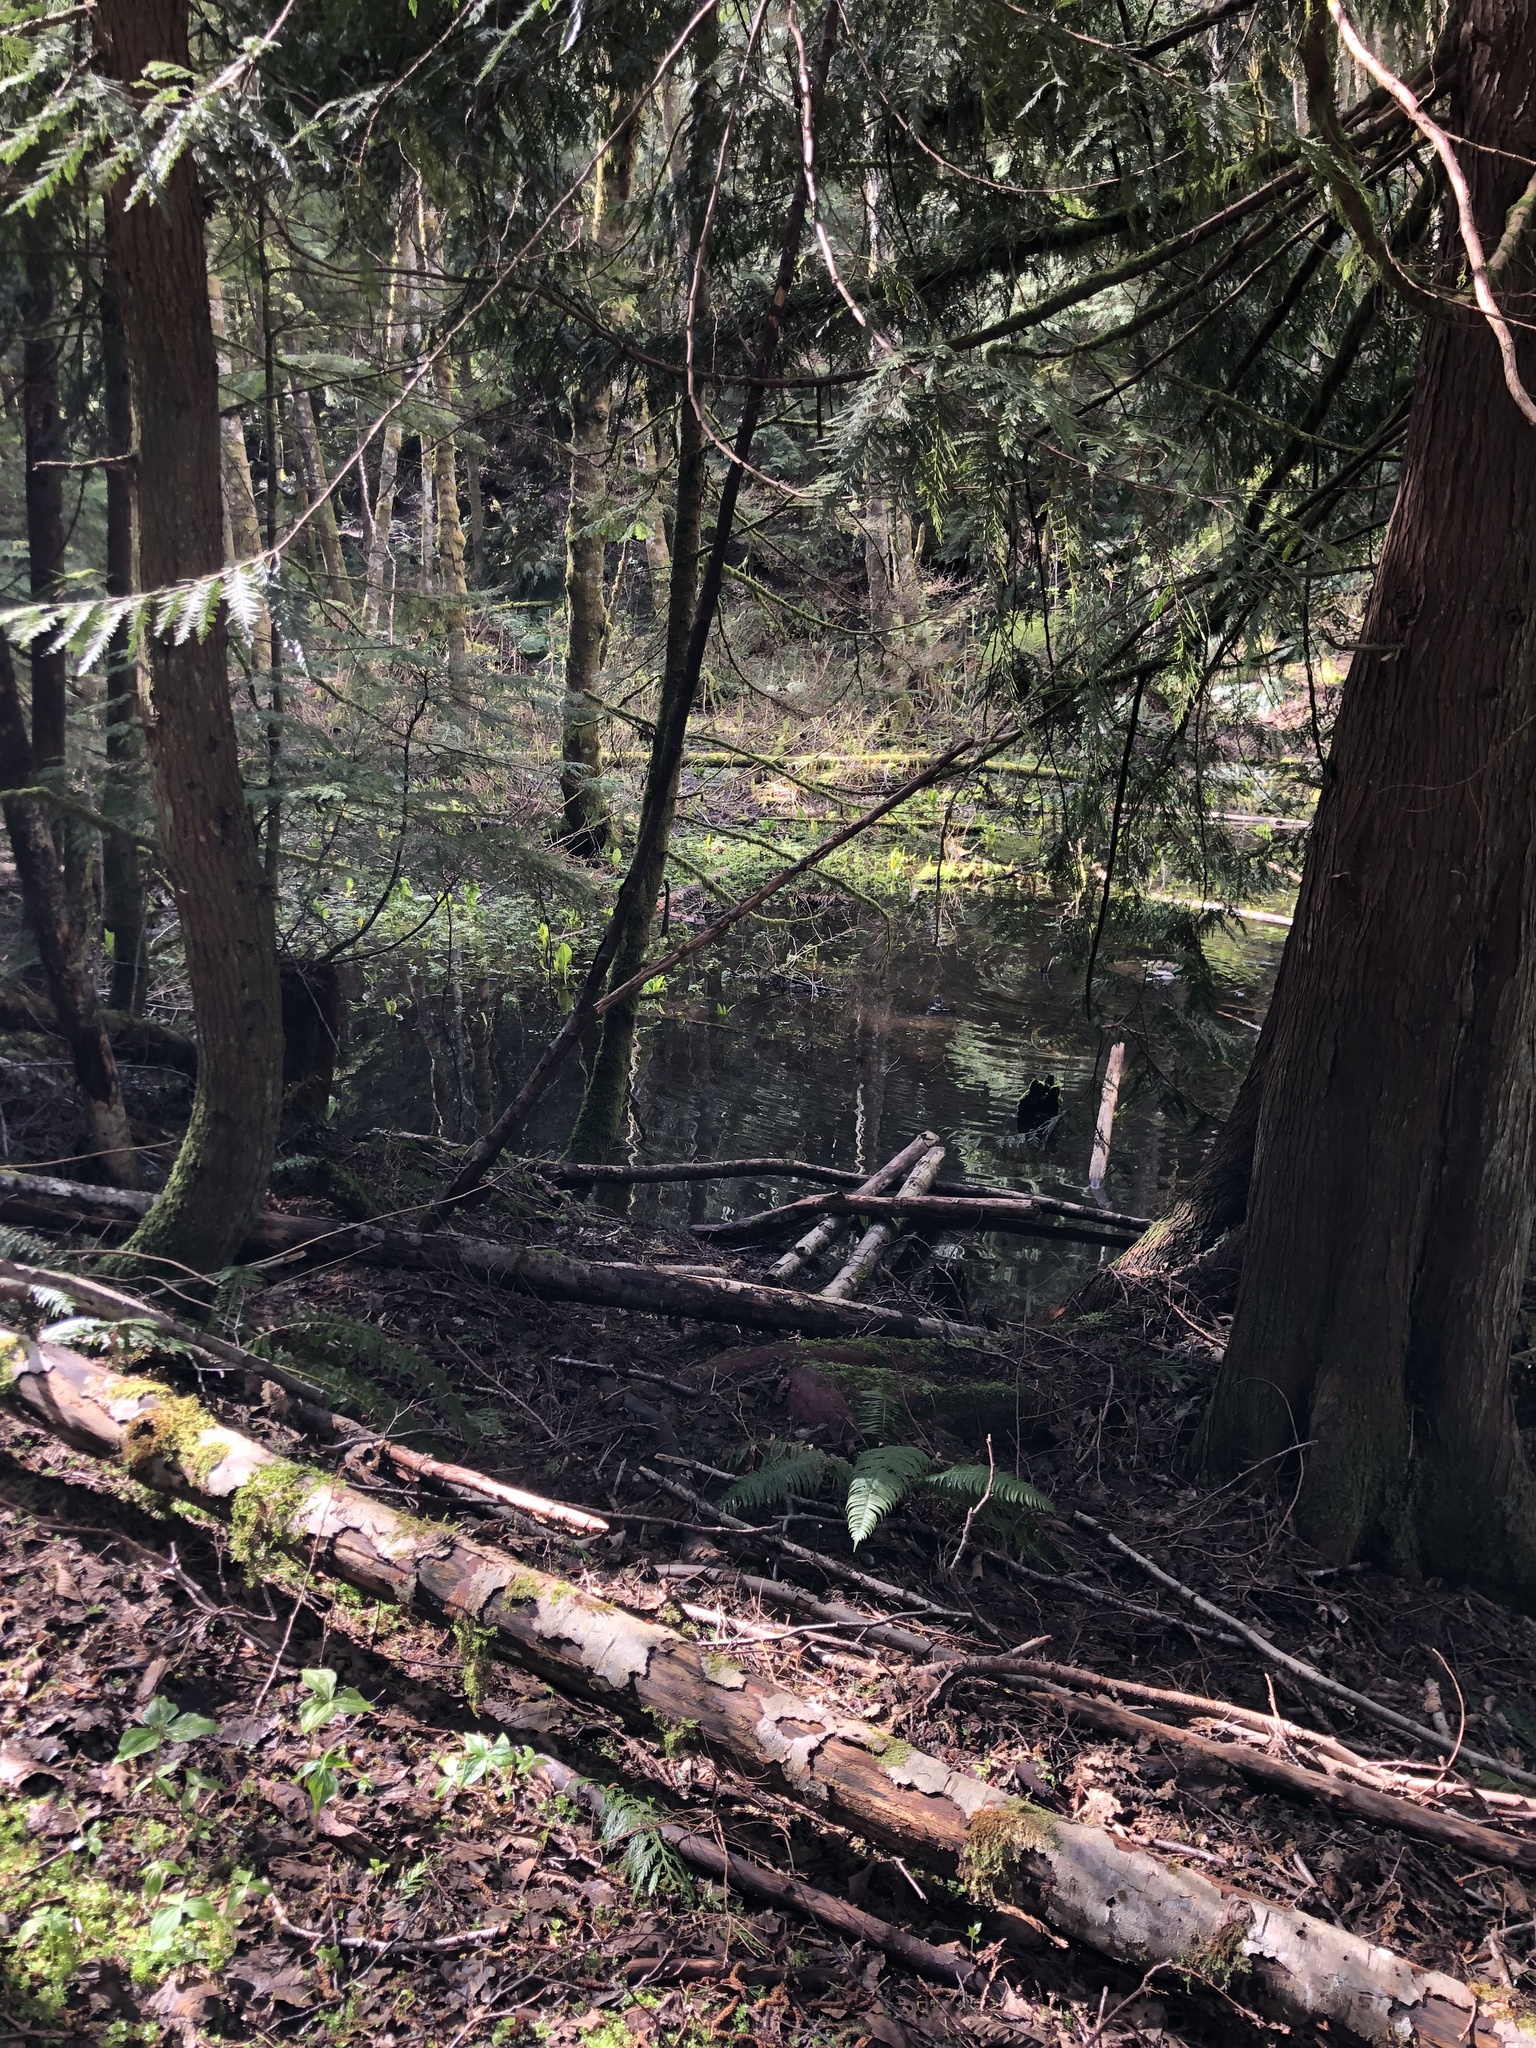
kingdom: Plantae
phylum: Tracheophyta
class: Pinopsida
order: Pinales
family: Cupressaceae
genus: Thuja
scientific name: Thuja plicata
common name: Western red-cedar
